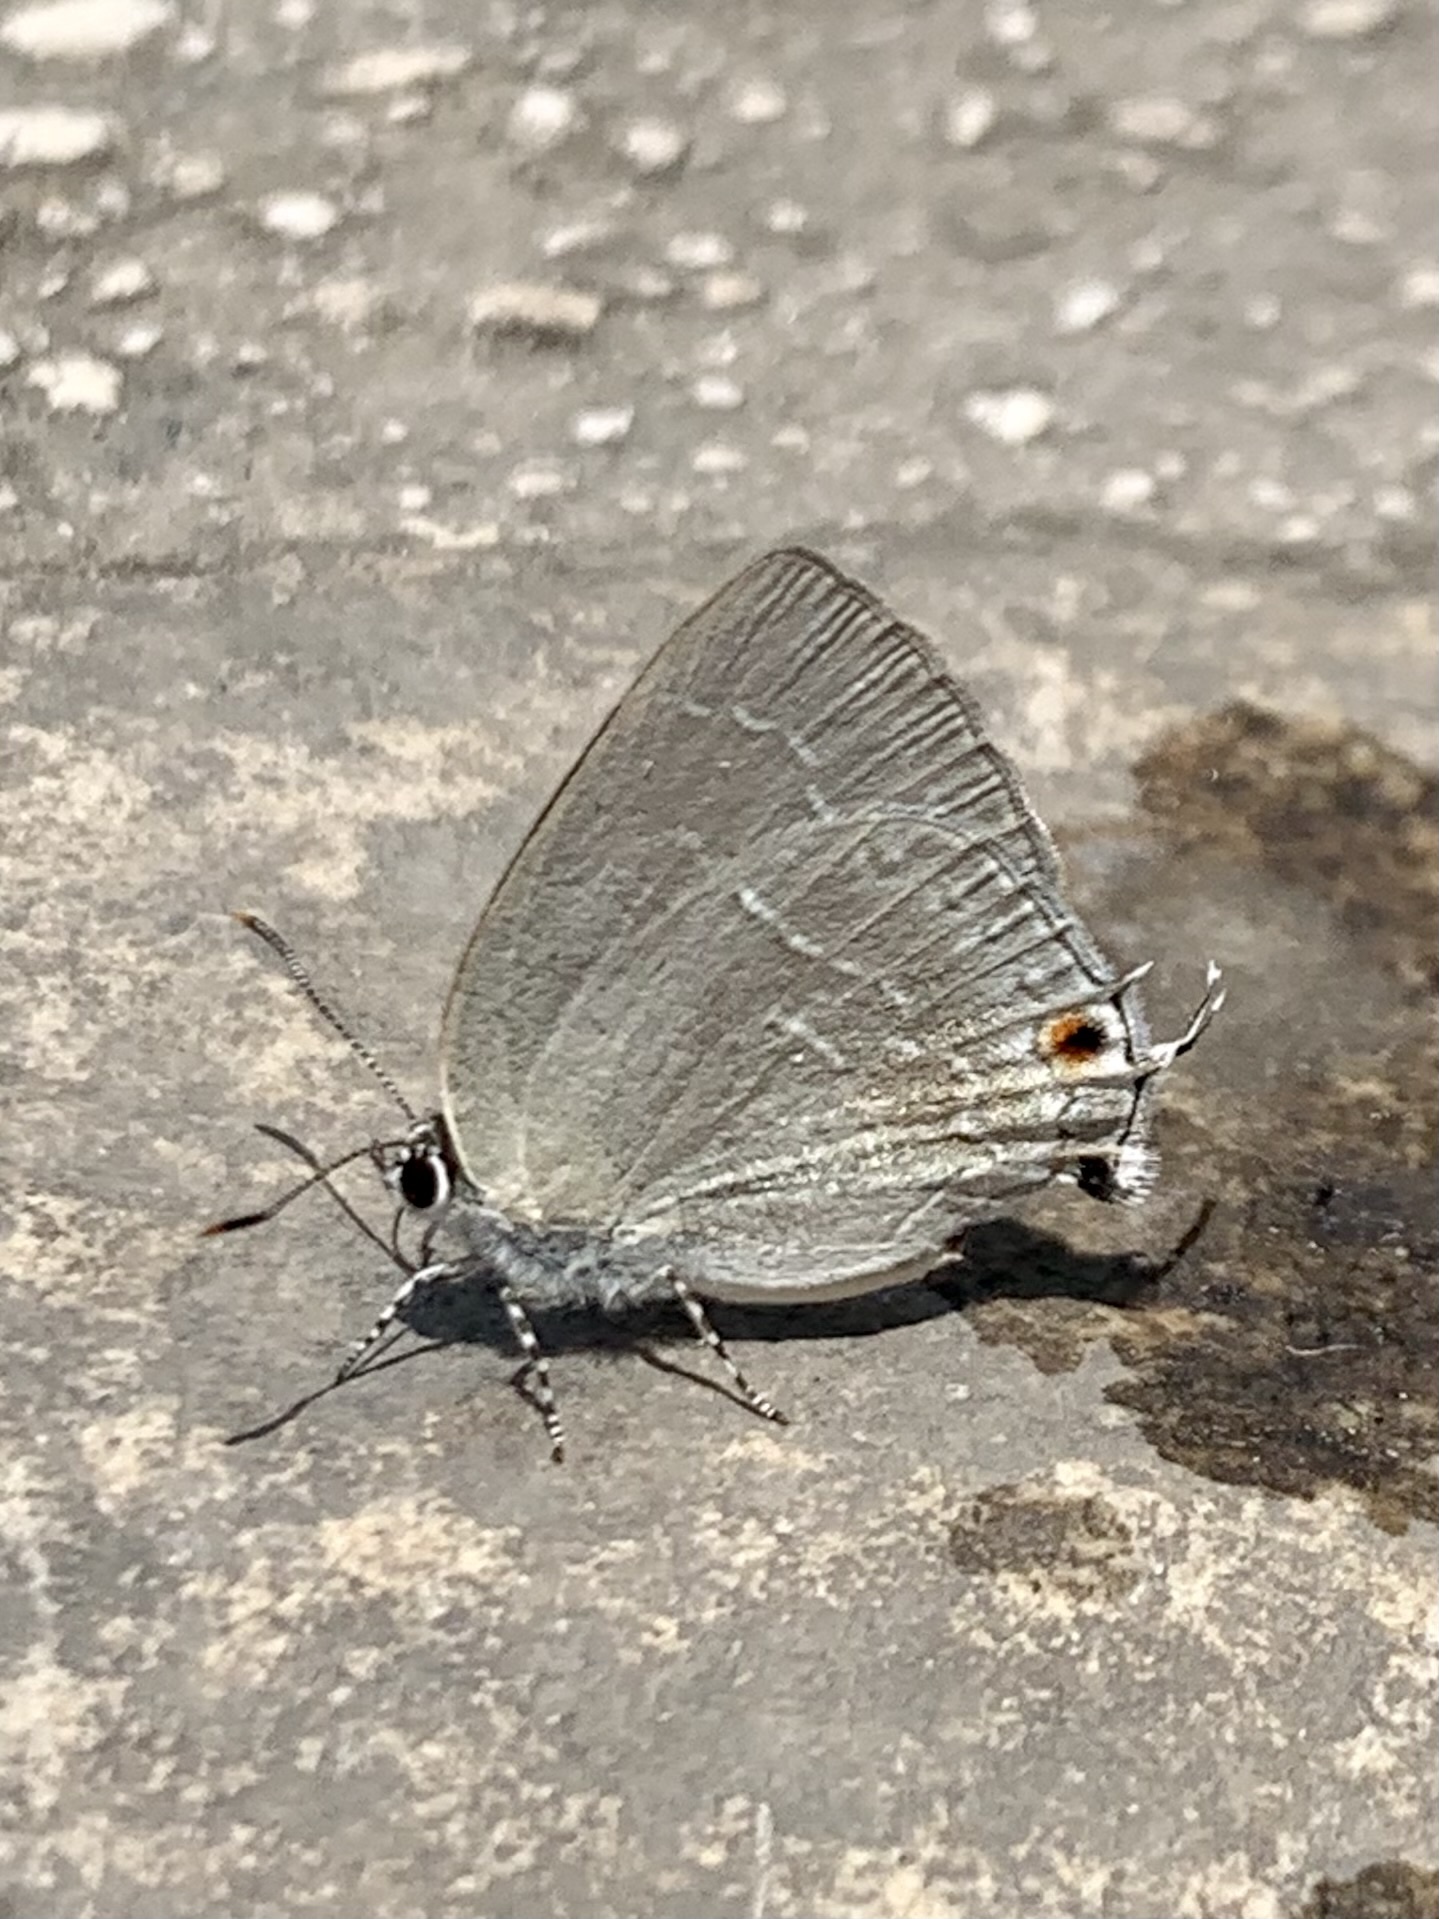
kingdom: Animalia
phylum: Arthropoda
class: Insecta
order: Lepidoptera
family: Lycaenidae
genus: Strephonota
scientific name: Strephonota tephraeus
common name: Pearly-gray hairstreak
